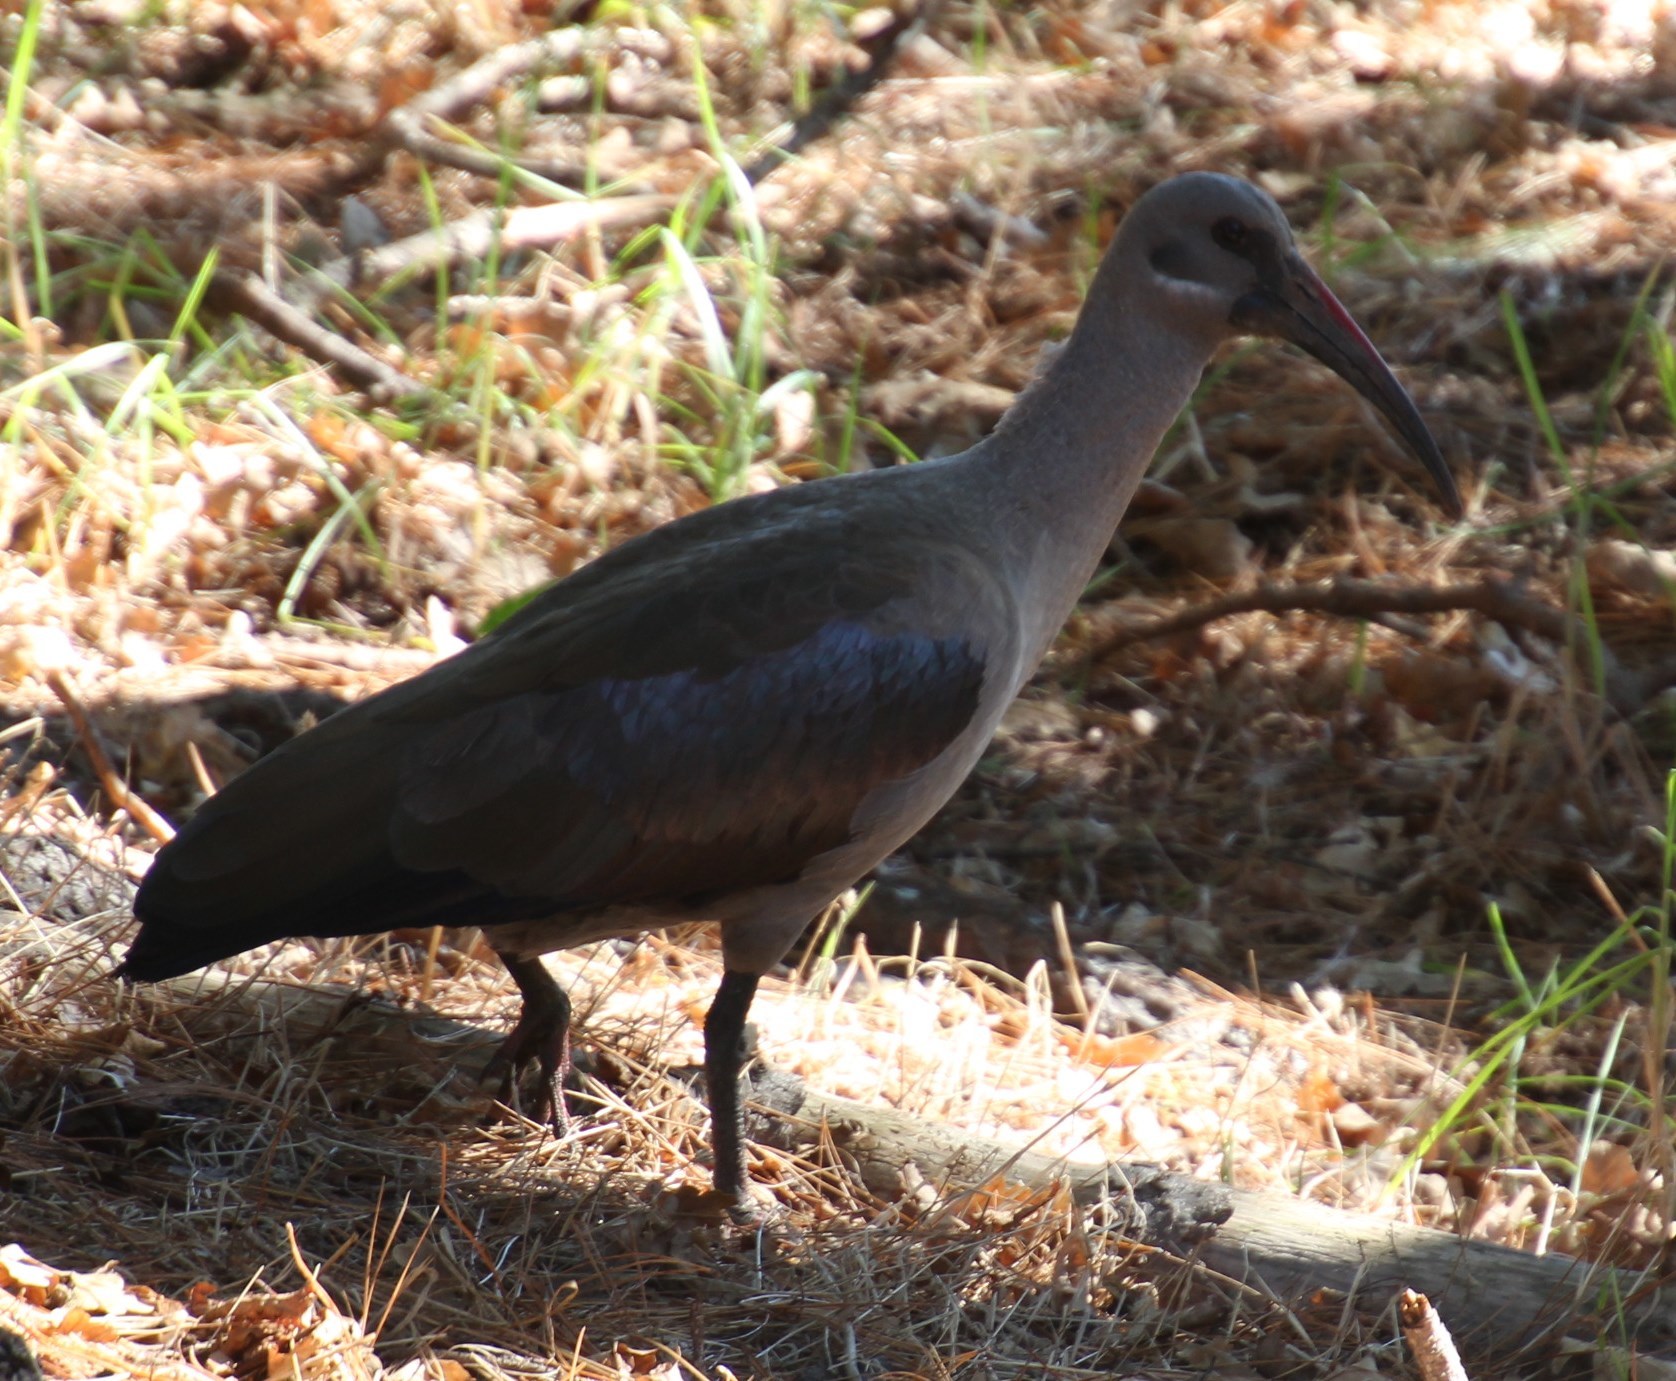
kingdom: Animalia
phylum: Chordata
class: Aves
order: Pelecaniformes
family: Threskiornithidae
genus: Bostrychia
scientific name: Bostrychia hagedash
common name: Hadada ibis
